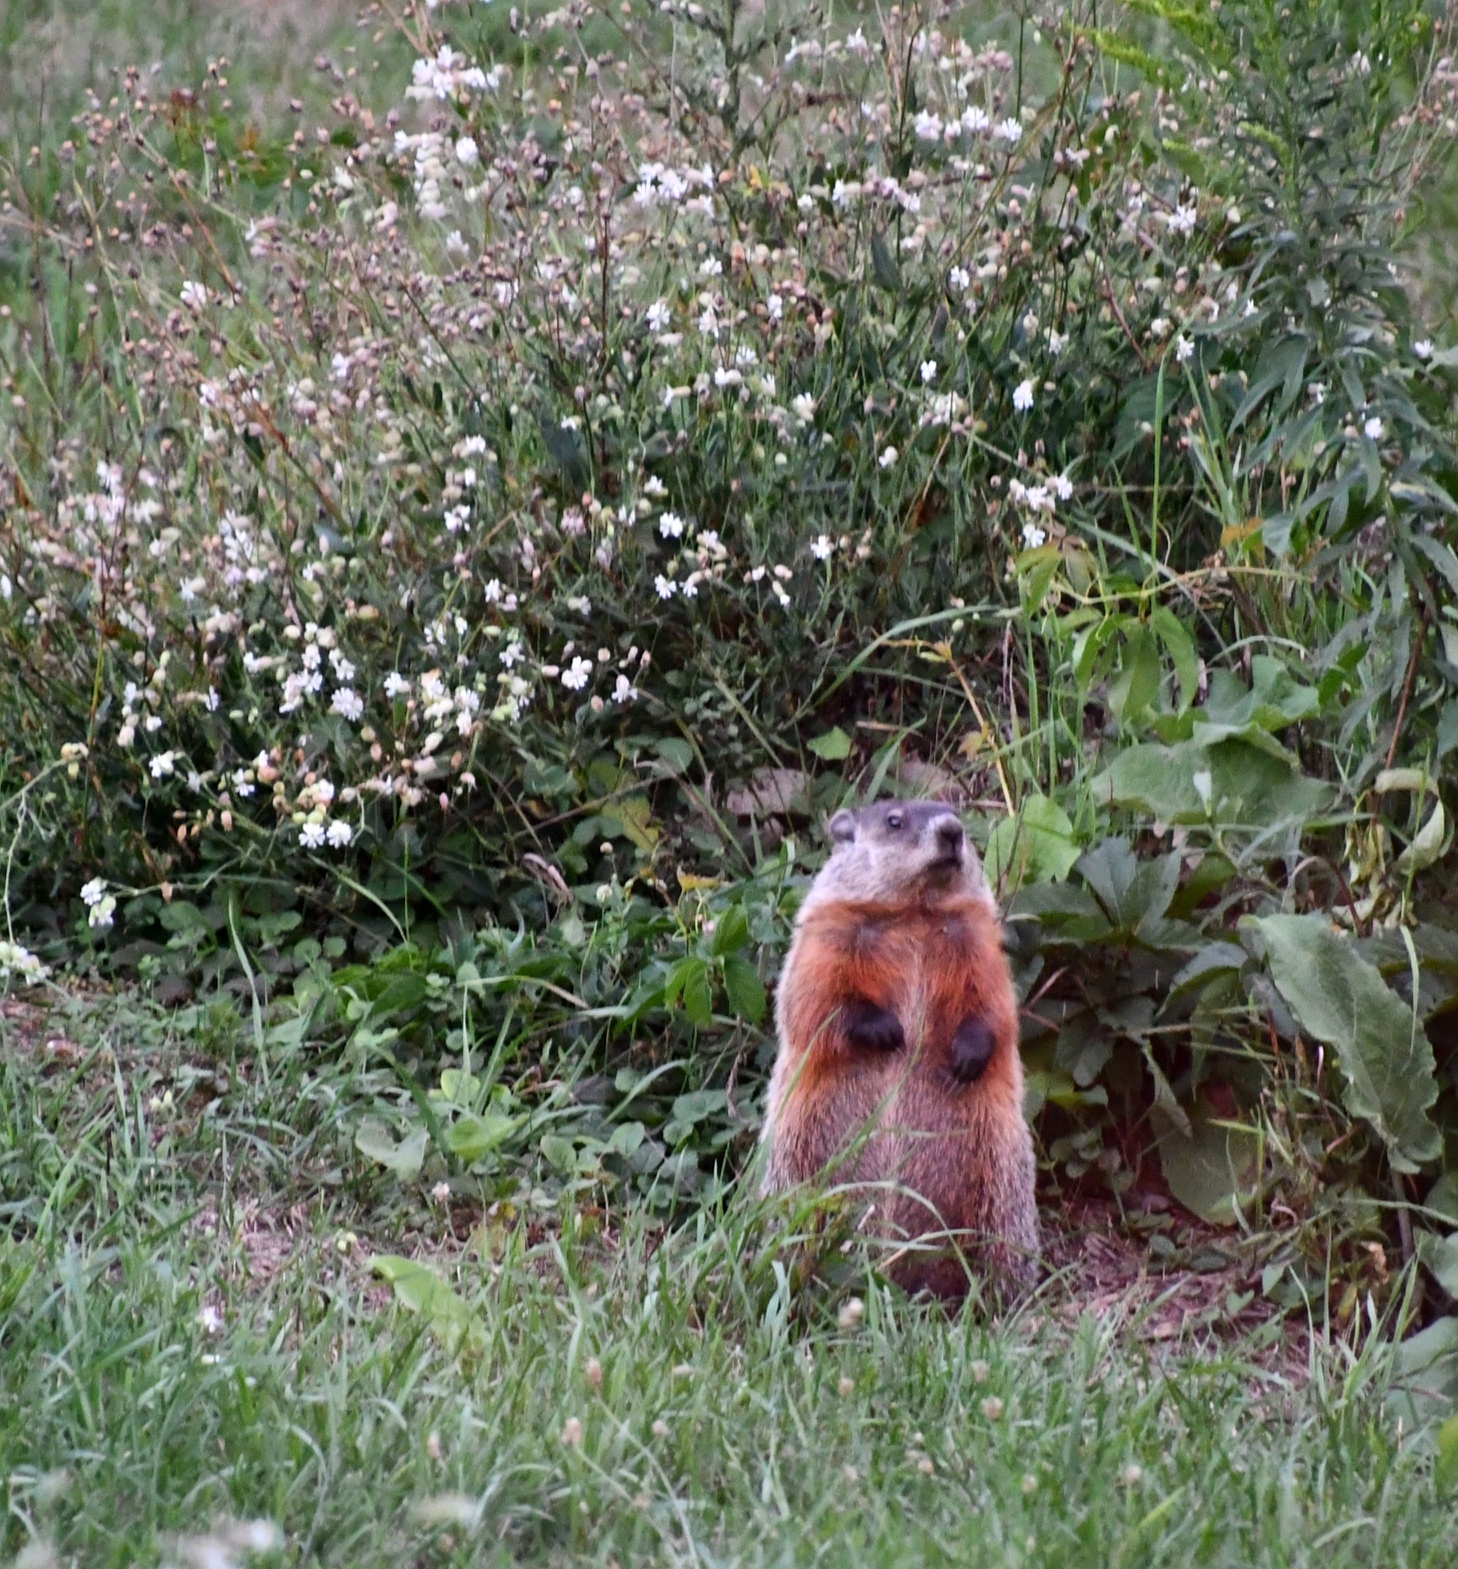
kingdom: Animalia
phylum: Chordata
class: Mammalia
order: Rodentia
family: Sciuridae
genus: Marmota
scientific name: Marmota monax
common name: Groundhog
